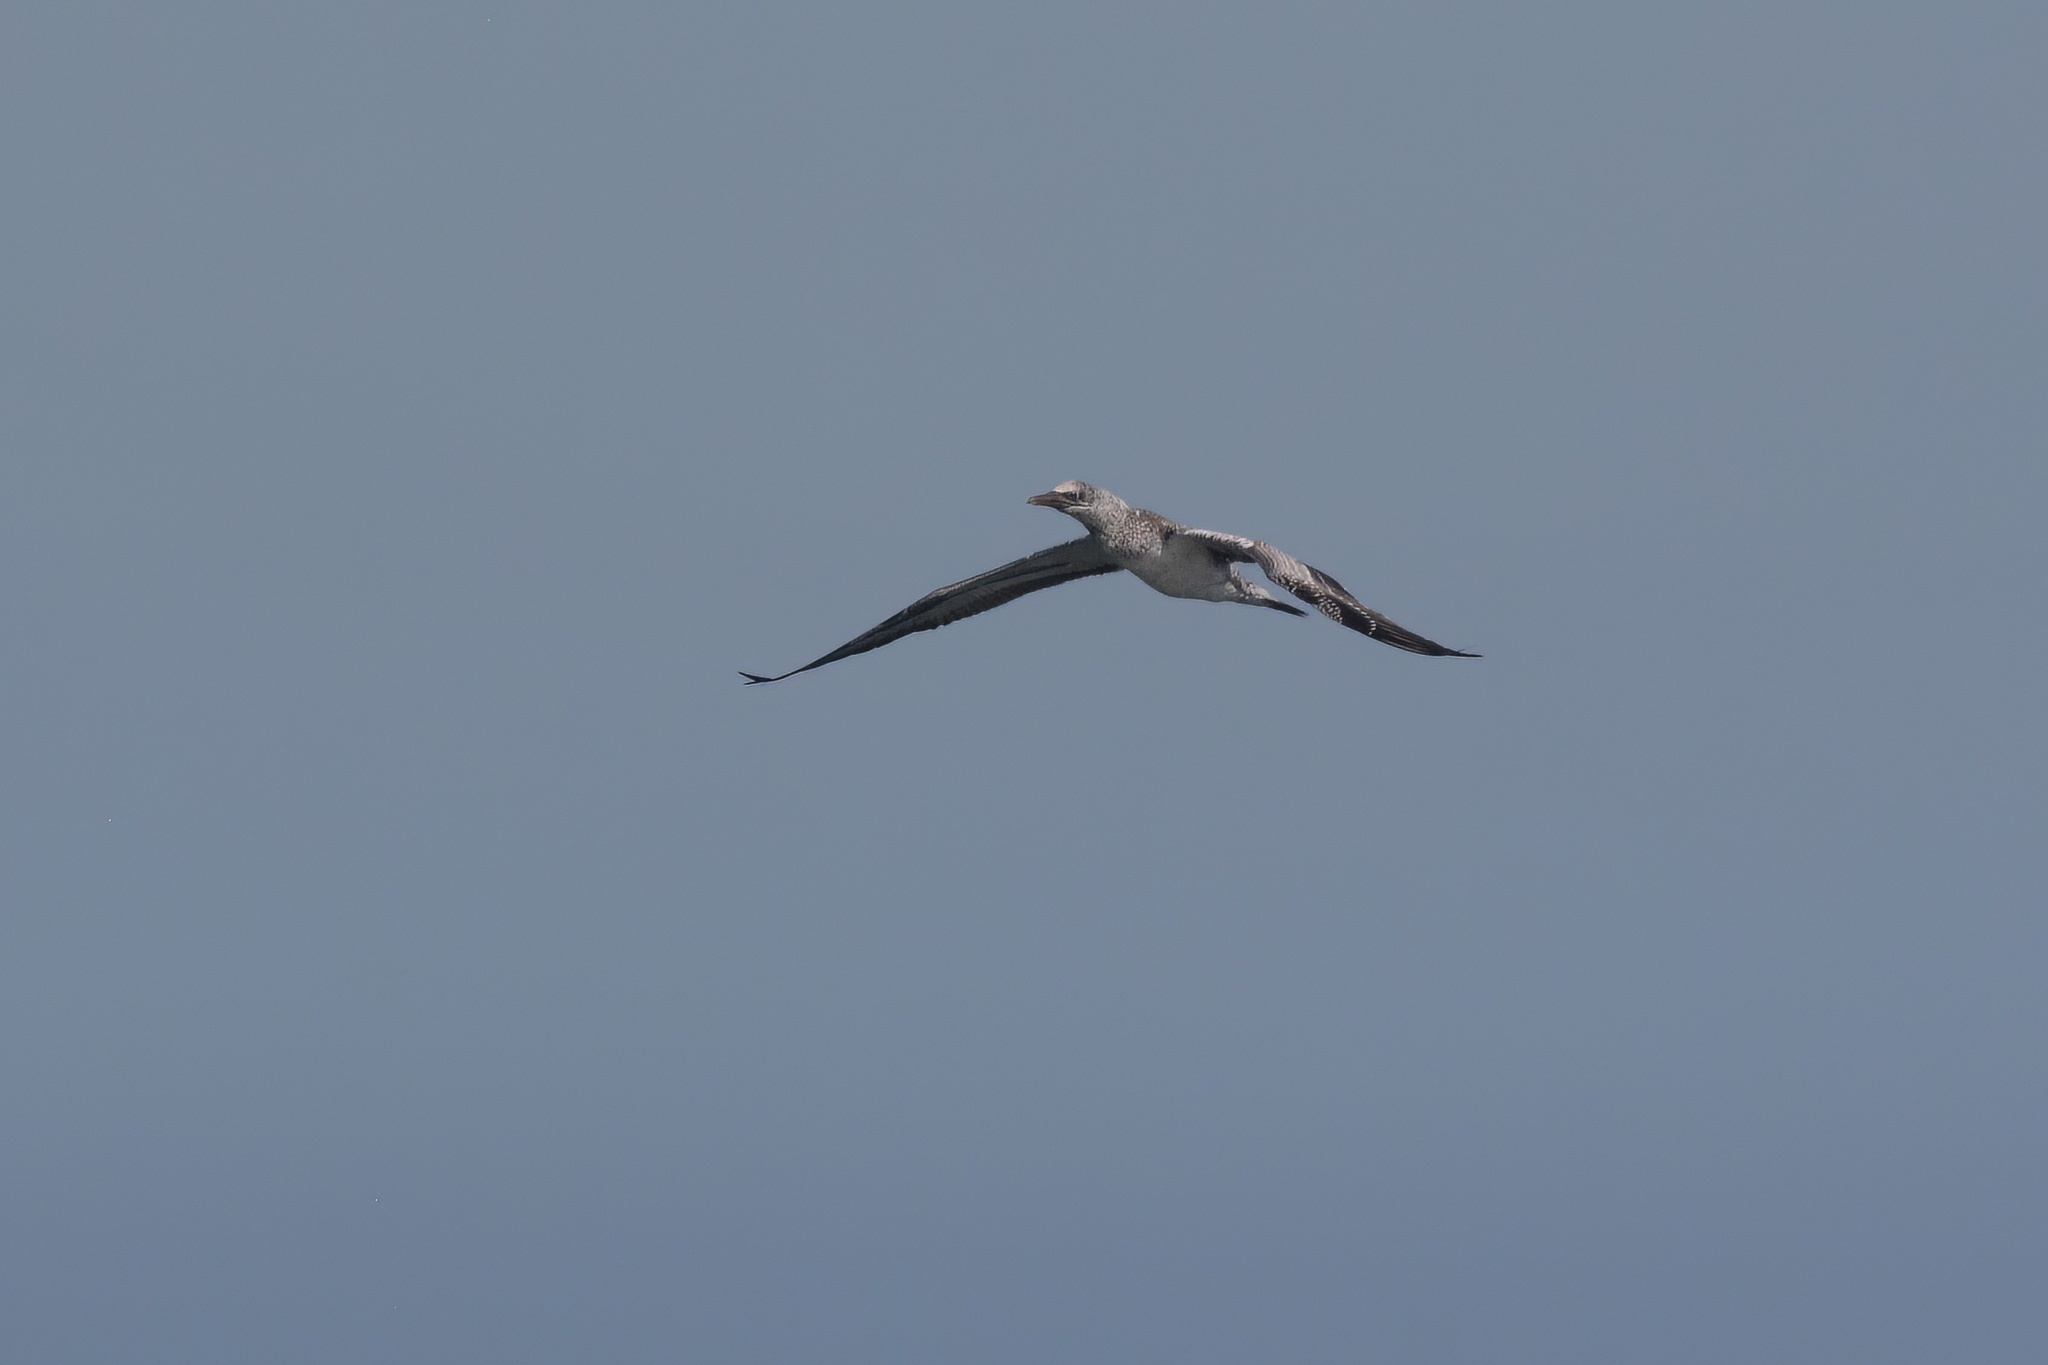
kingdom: Animalia
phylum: Chordata
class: Aves
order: Suliformes
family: Sulidae
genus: Morus
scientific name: Morus serrator
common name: Australasian gannet
